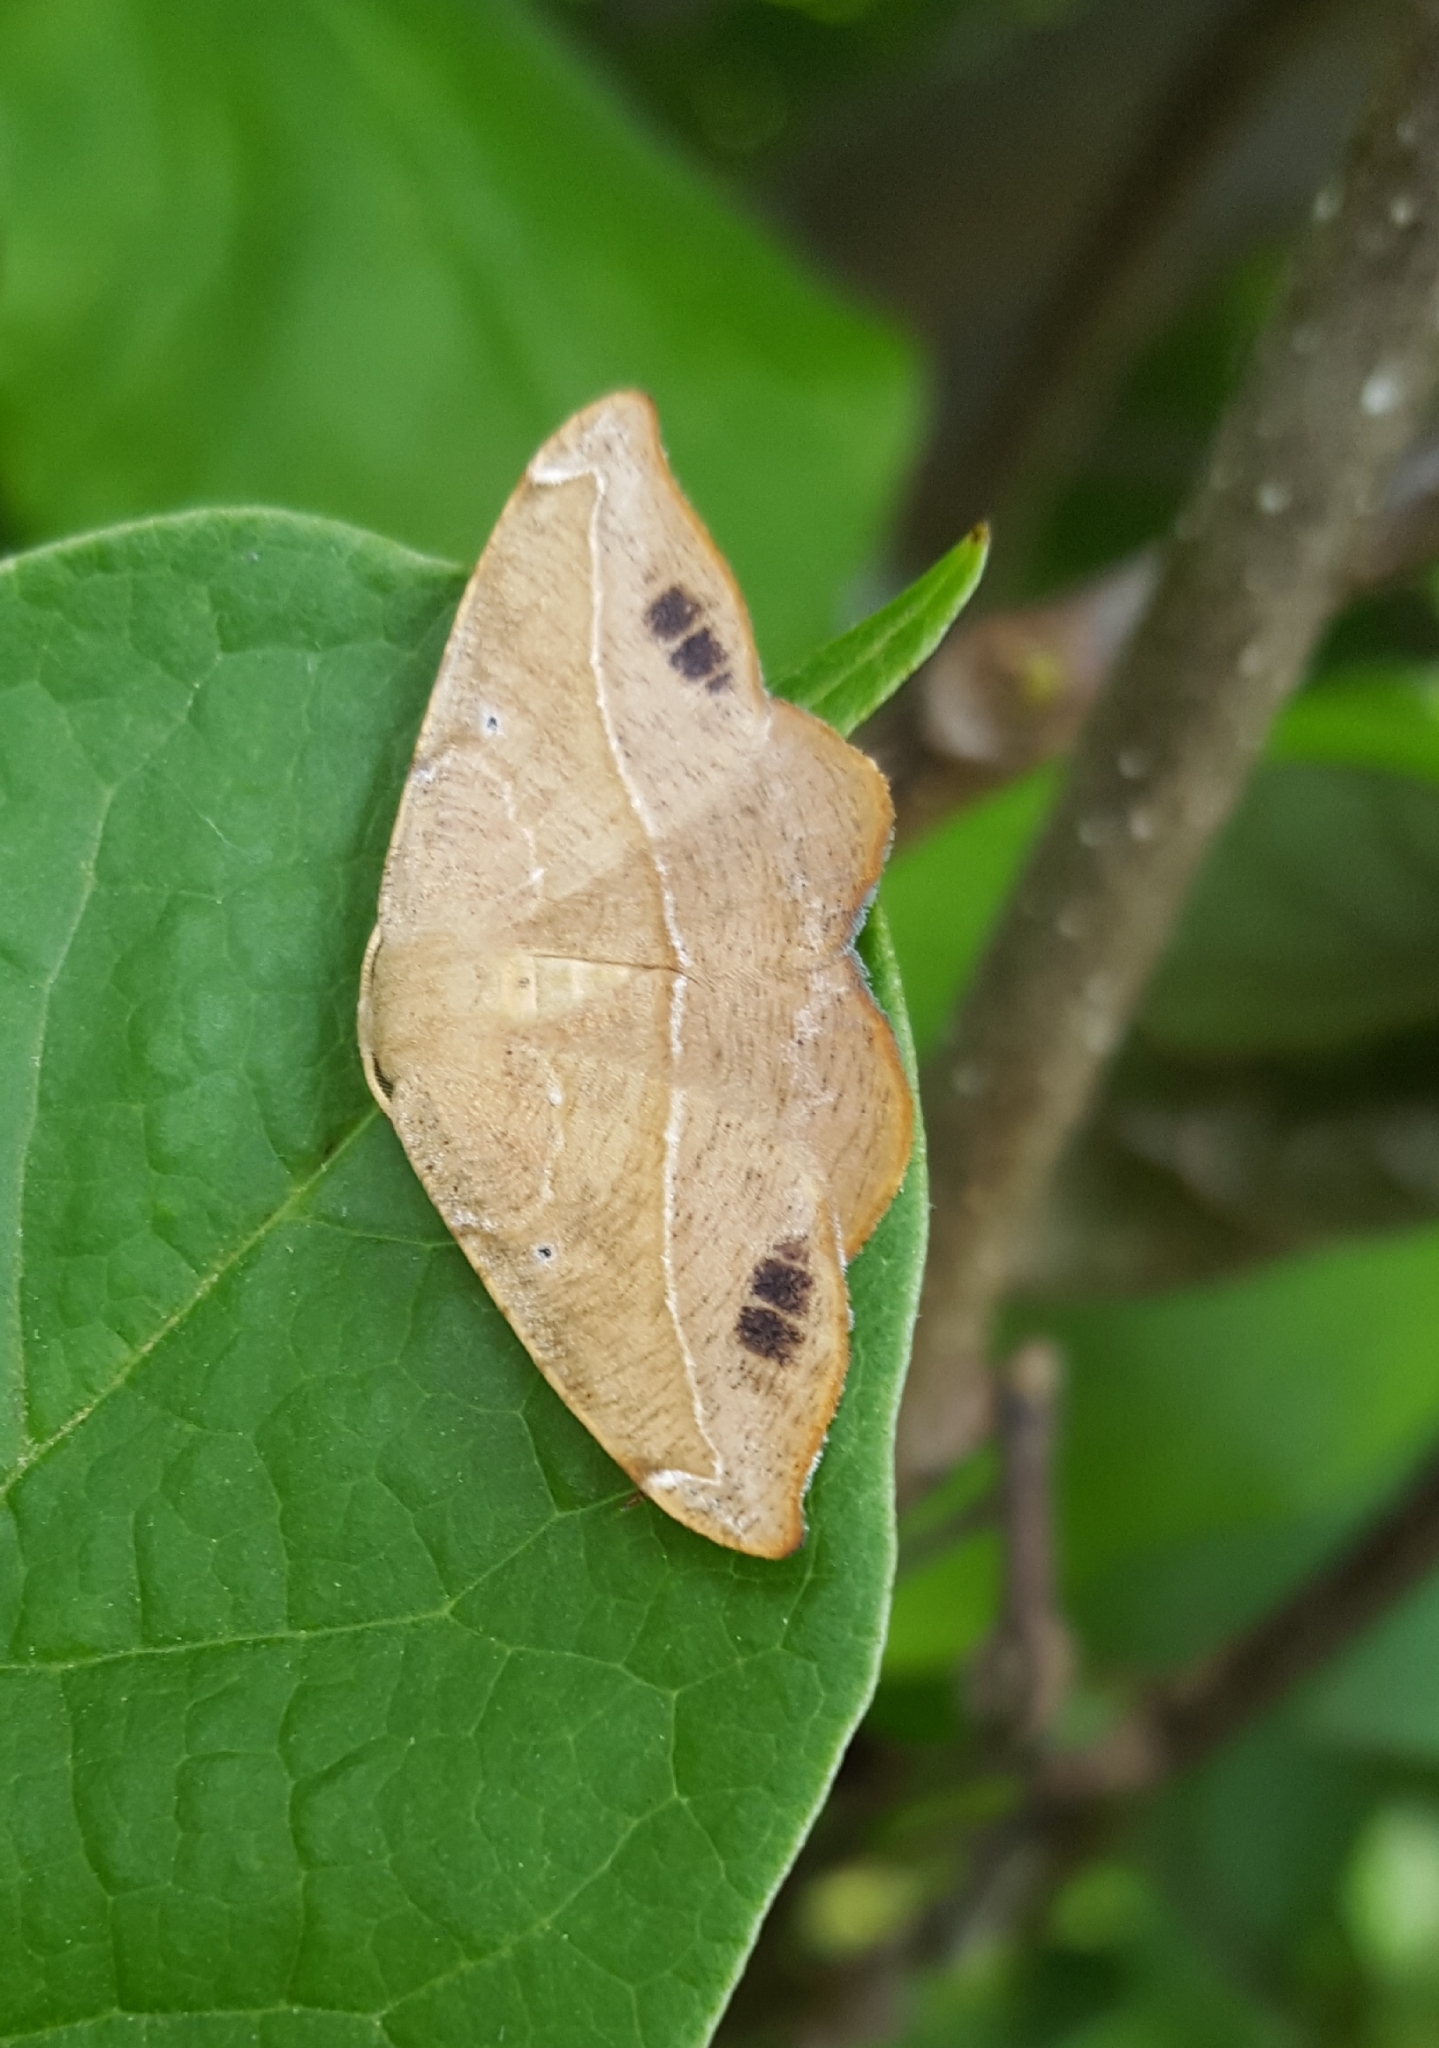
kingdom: Animalia
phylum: Arthropoda
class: Insecta
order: Lepidoptera
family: Geometridae
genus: Patalene
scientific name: Patalene olyzonaria
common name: Juniper geometer moth
